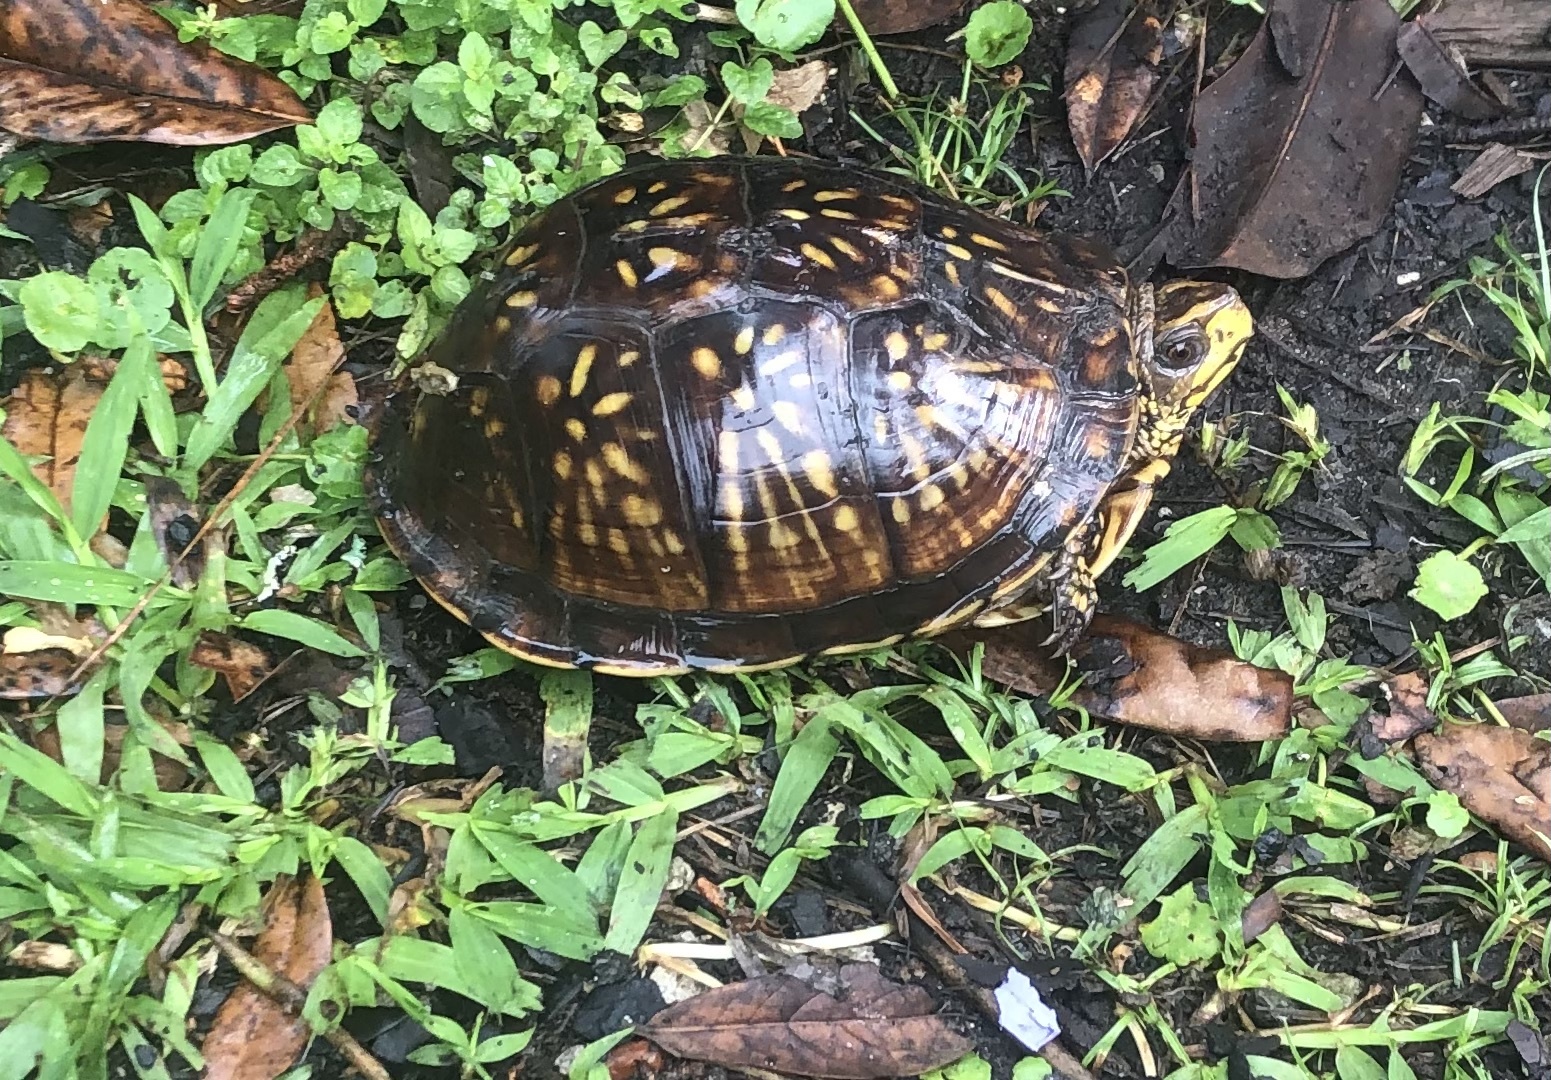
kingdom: Animalia
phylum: Chordata
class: Testudines
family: Emydidae
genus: Terrapene
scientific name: Terrapene carolina
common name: Common box turtle
